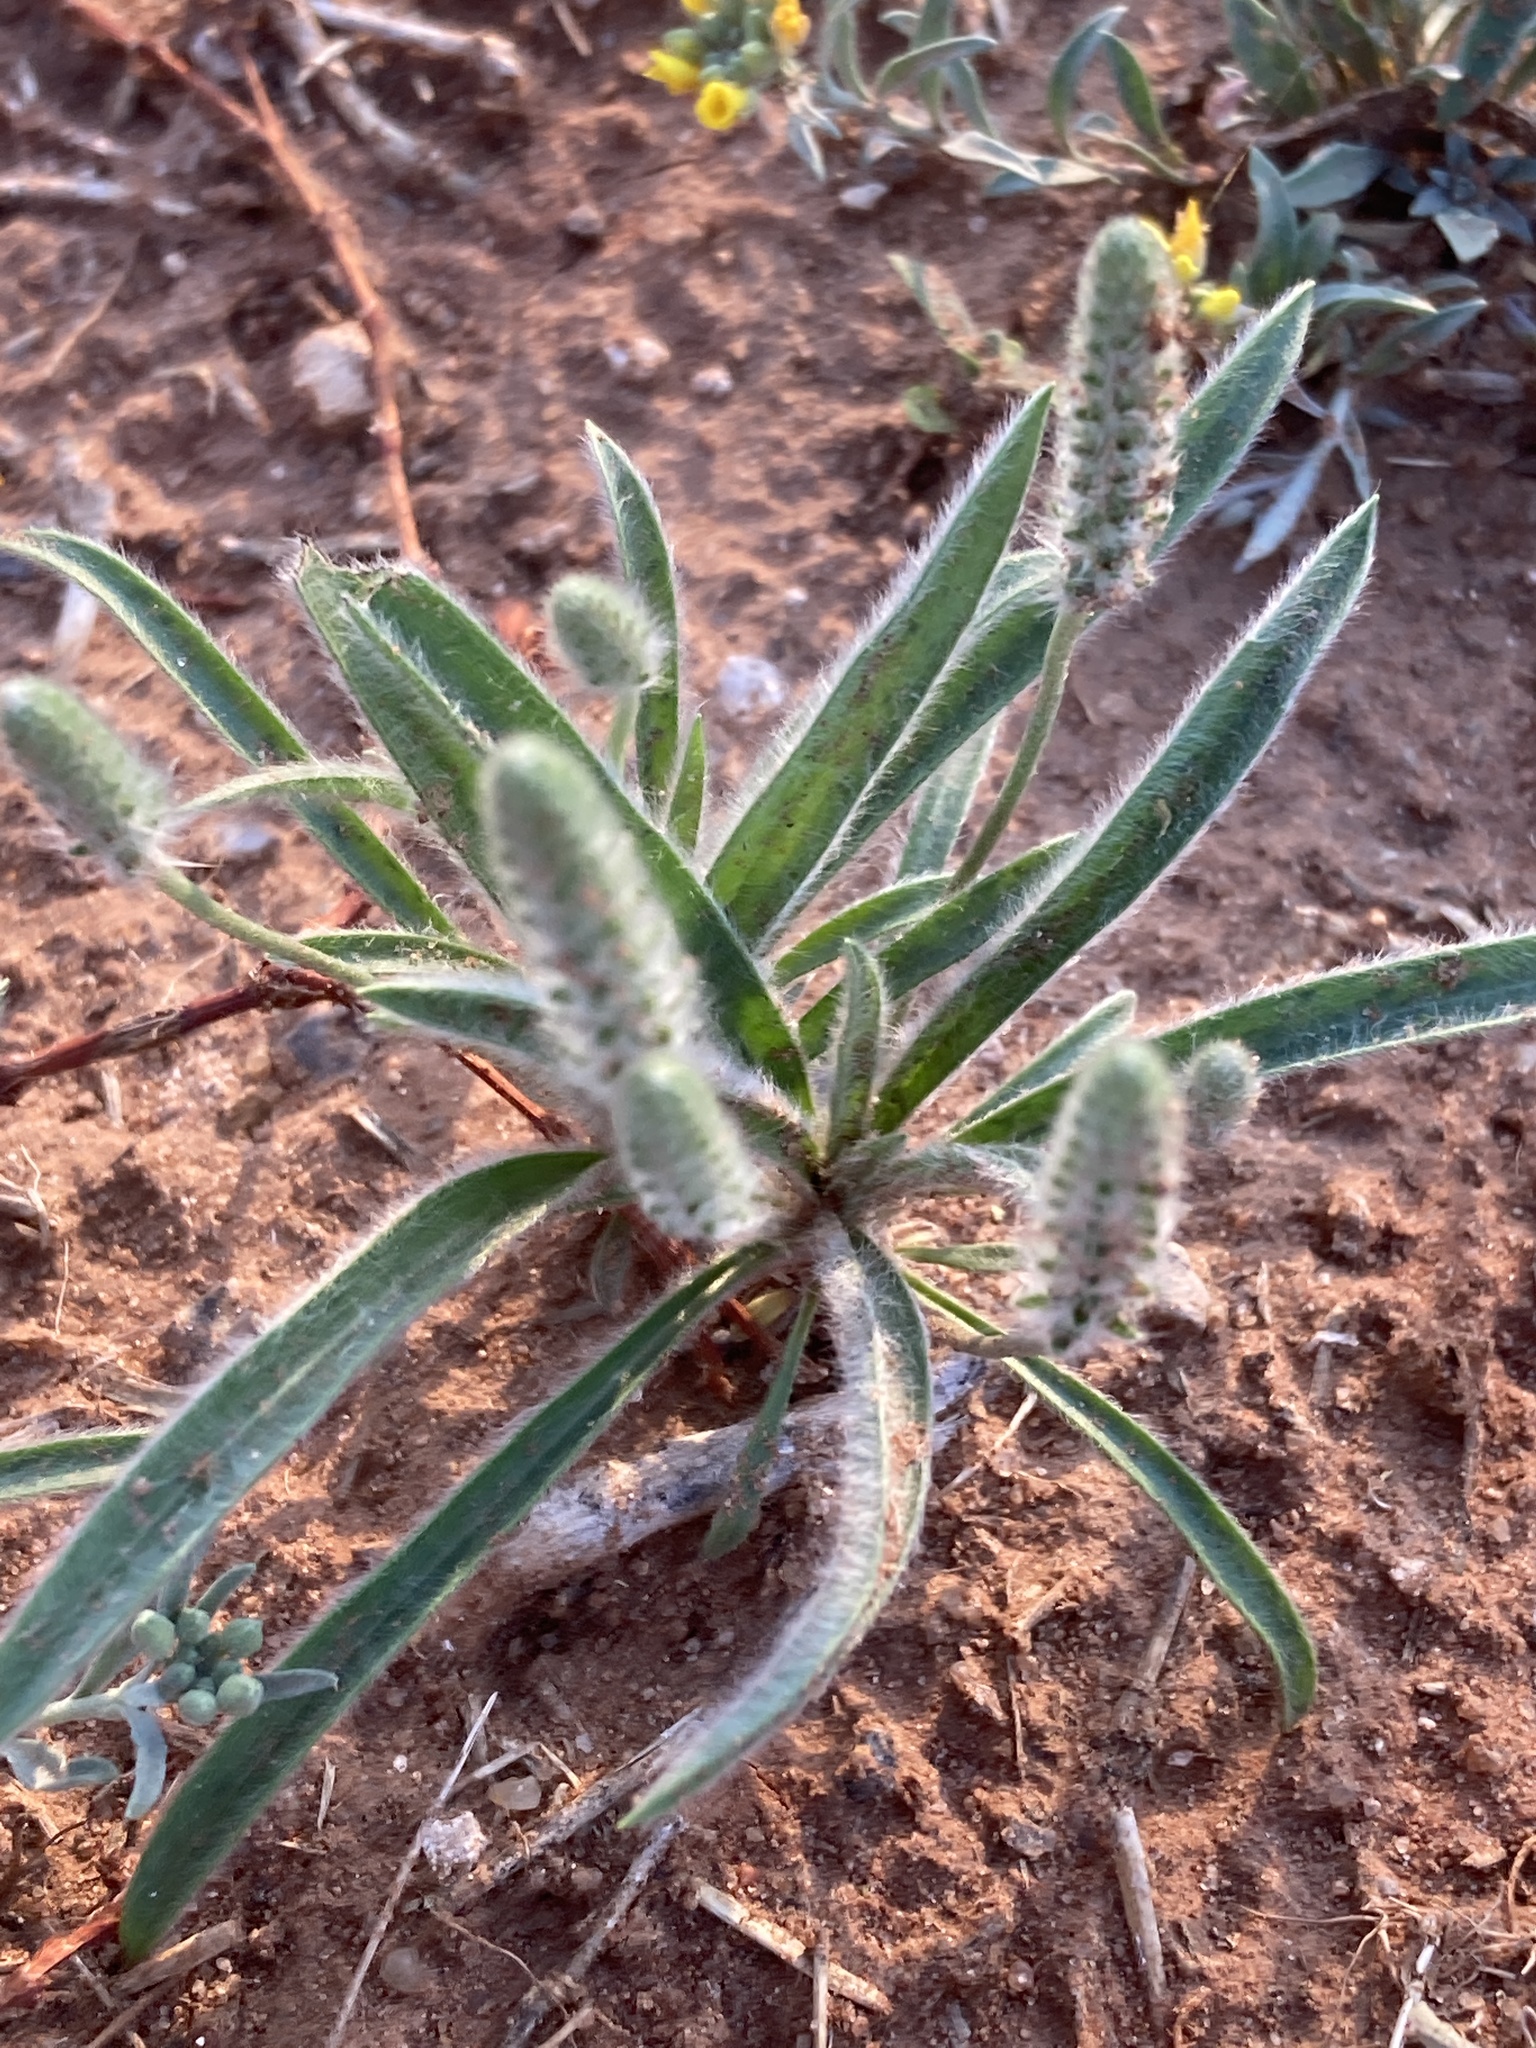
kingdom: Plantae
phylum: Tracheophyta
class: Magnoliopsida
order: Lamiales
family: Plantaginaceae
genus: Plantago
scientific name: Plantago patagonica
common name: Patagonia indian-wheat
